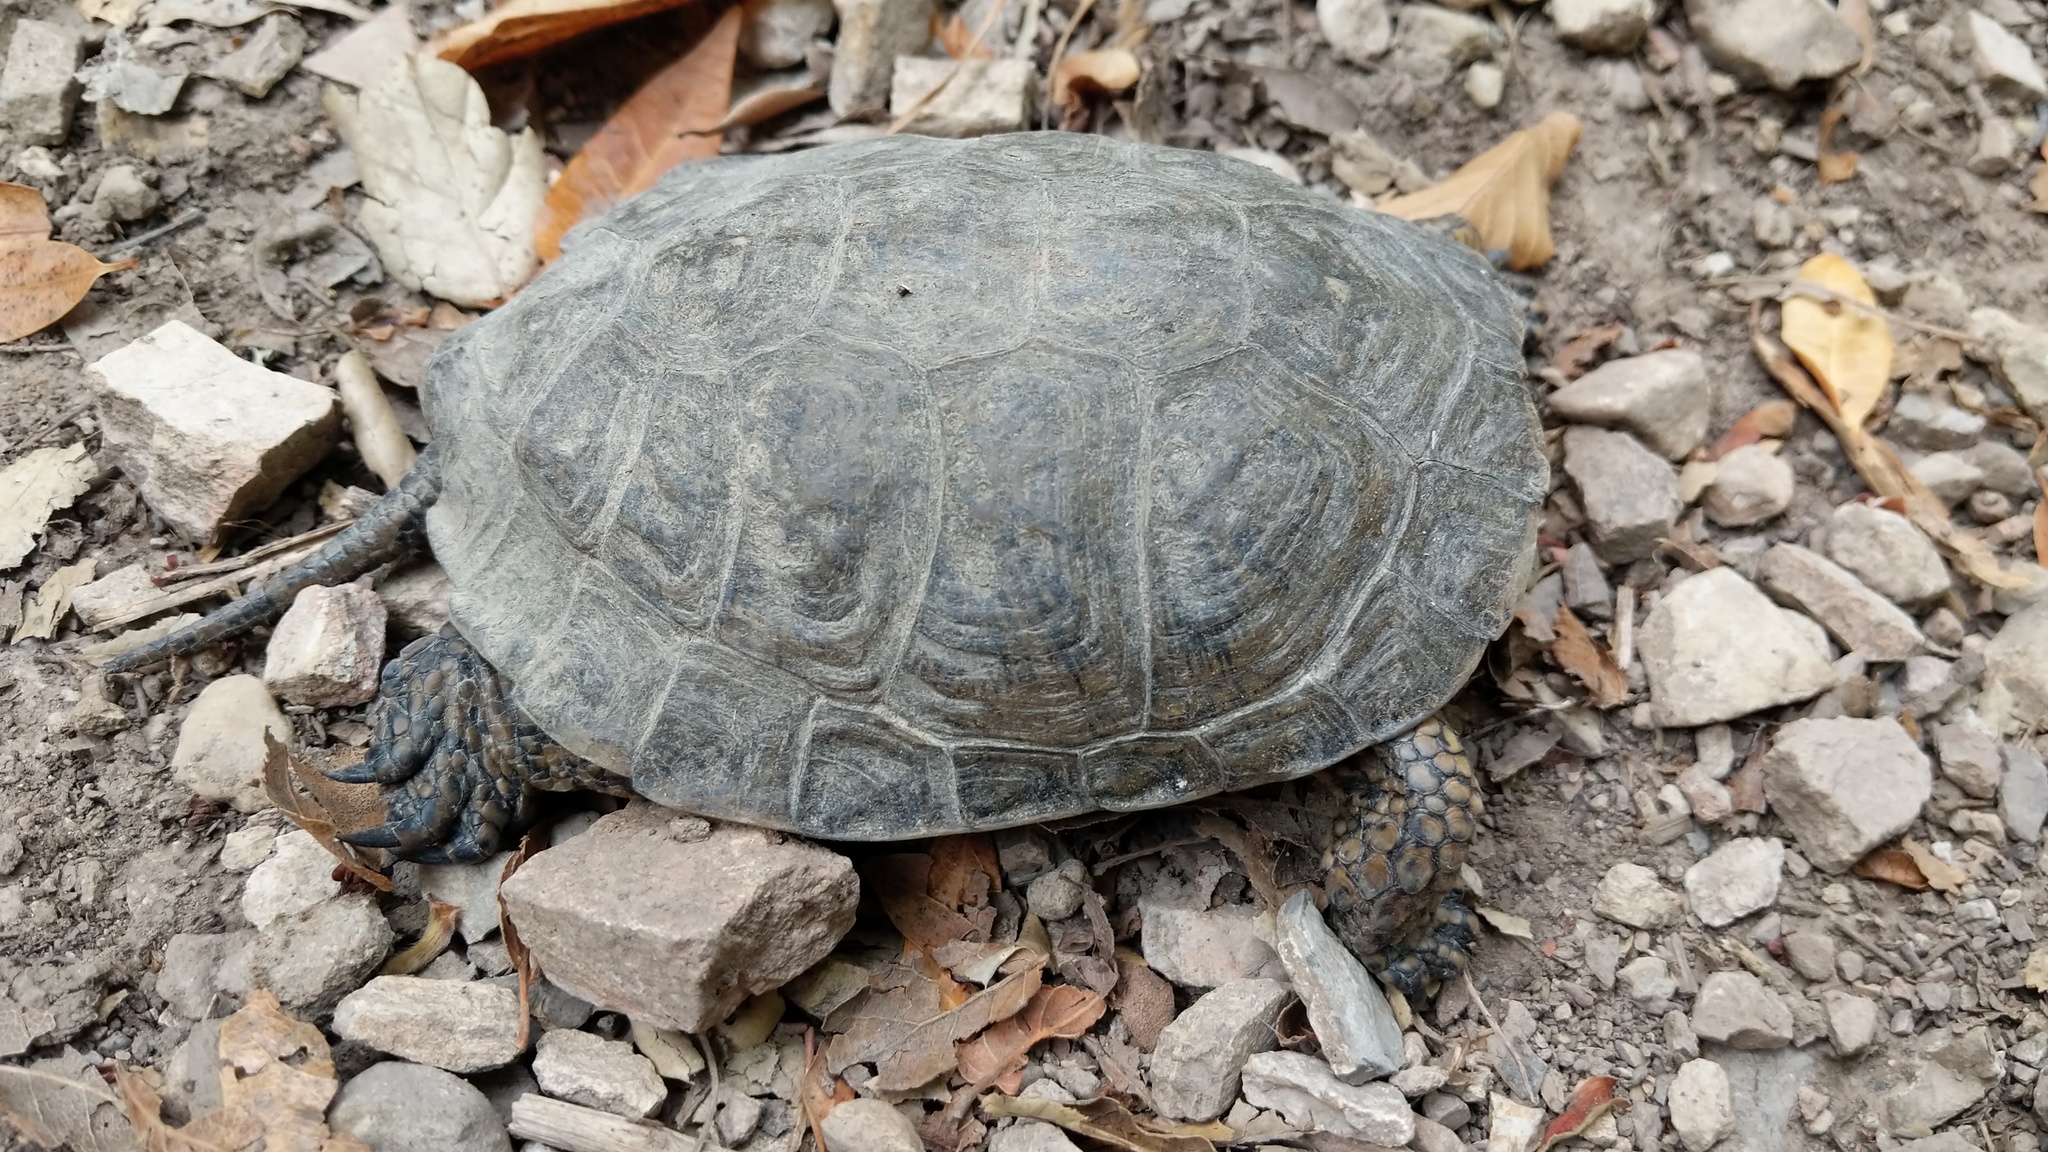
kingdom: Animalia
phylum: Chordata
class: Testudines
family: Emydidae
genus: Actinemys
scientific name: Actinemys marmorata
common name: Western pond turtle
